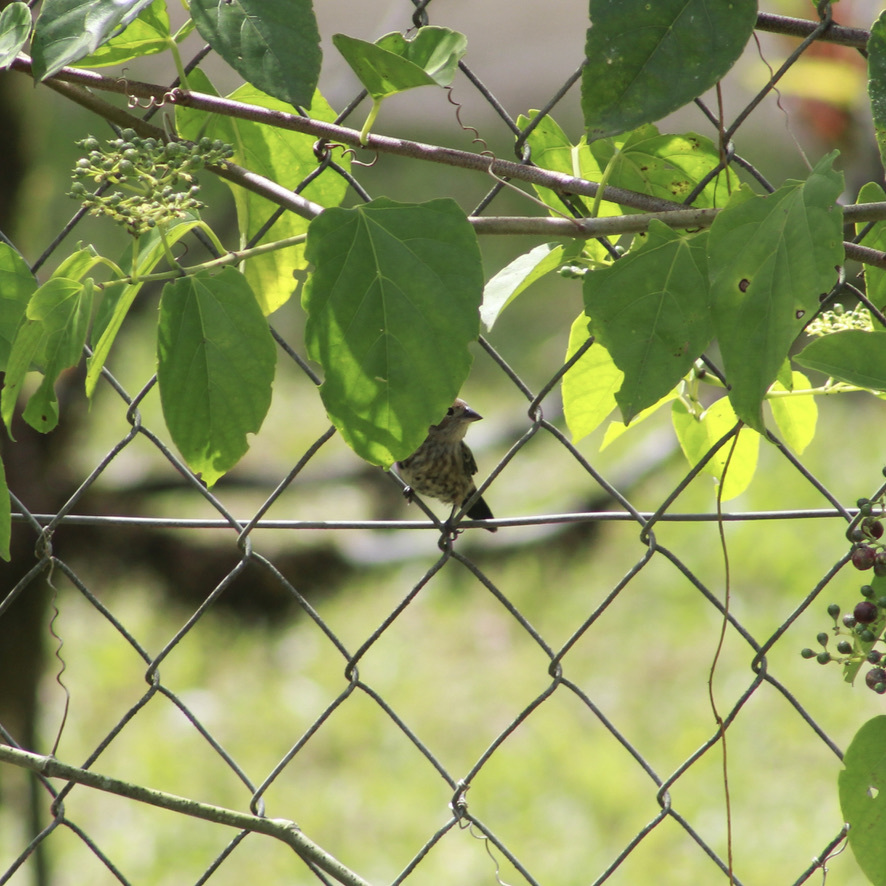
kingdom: Animalia
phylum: Chordata
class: Aves
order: Passeriformes
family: Thraupidae
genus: Volatinia
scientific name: Volatinia jacarina
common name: Blue-black grassquit
